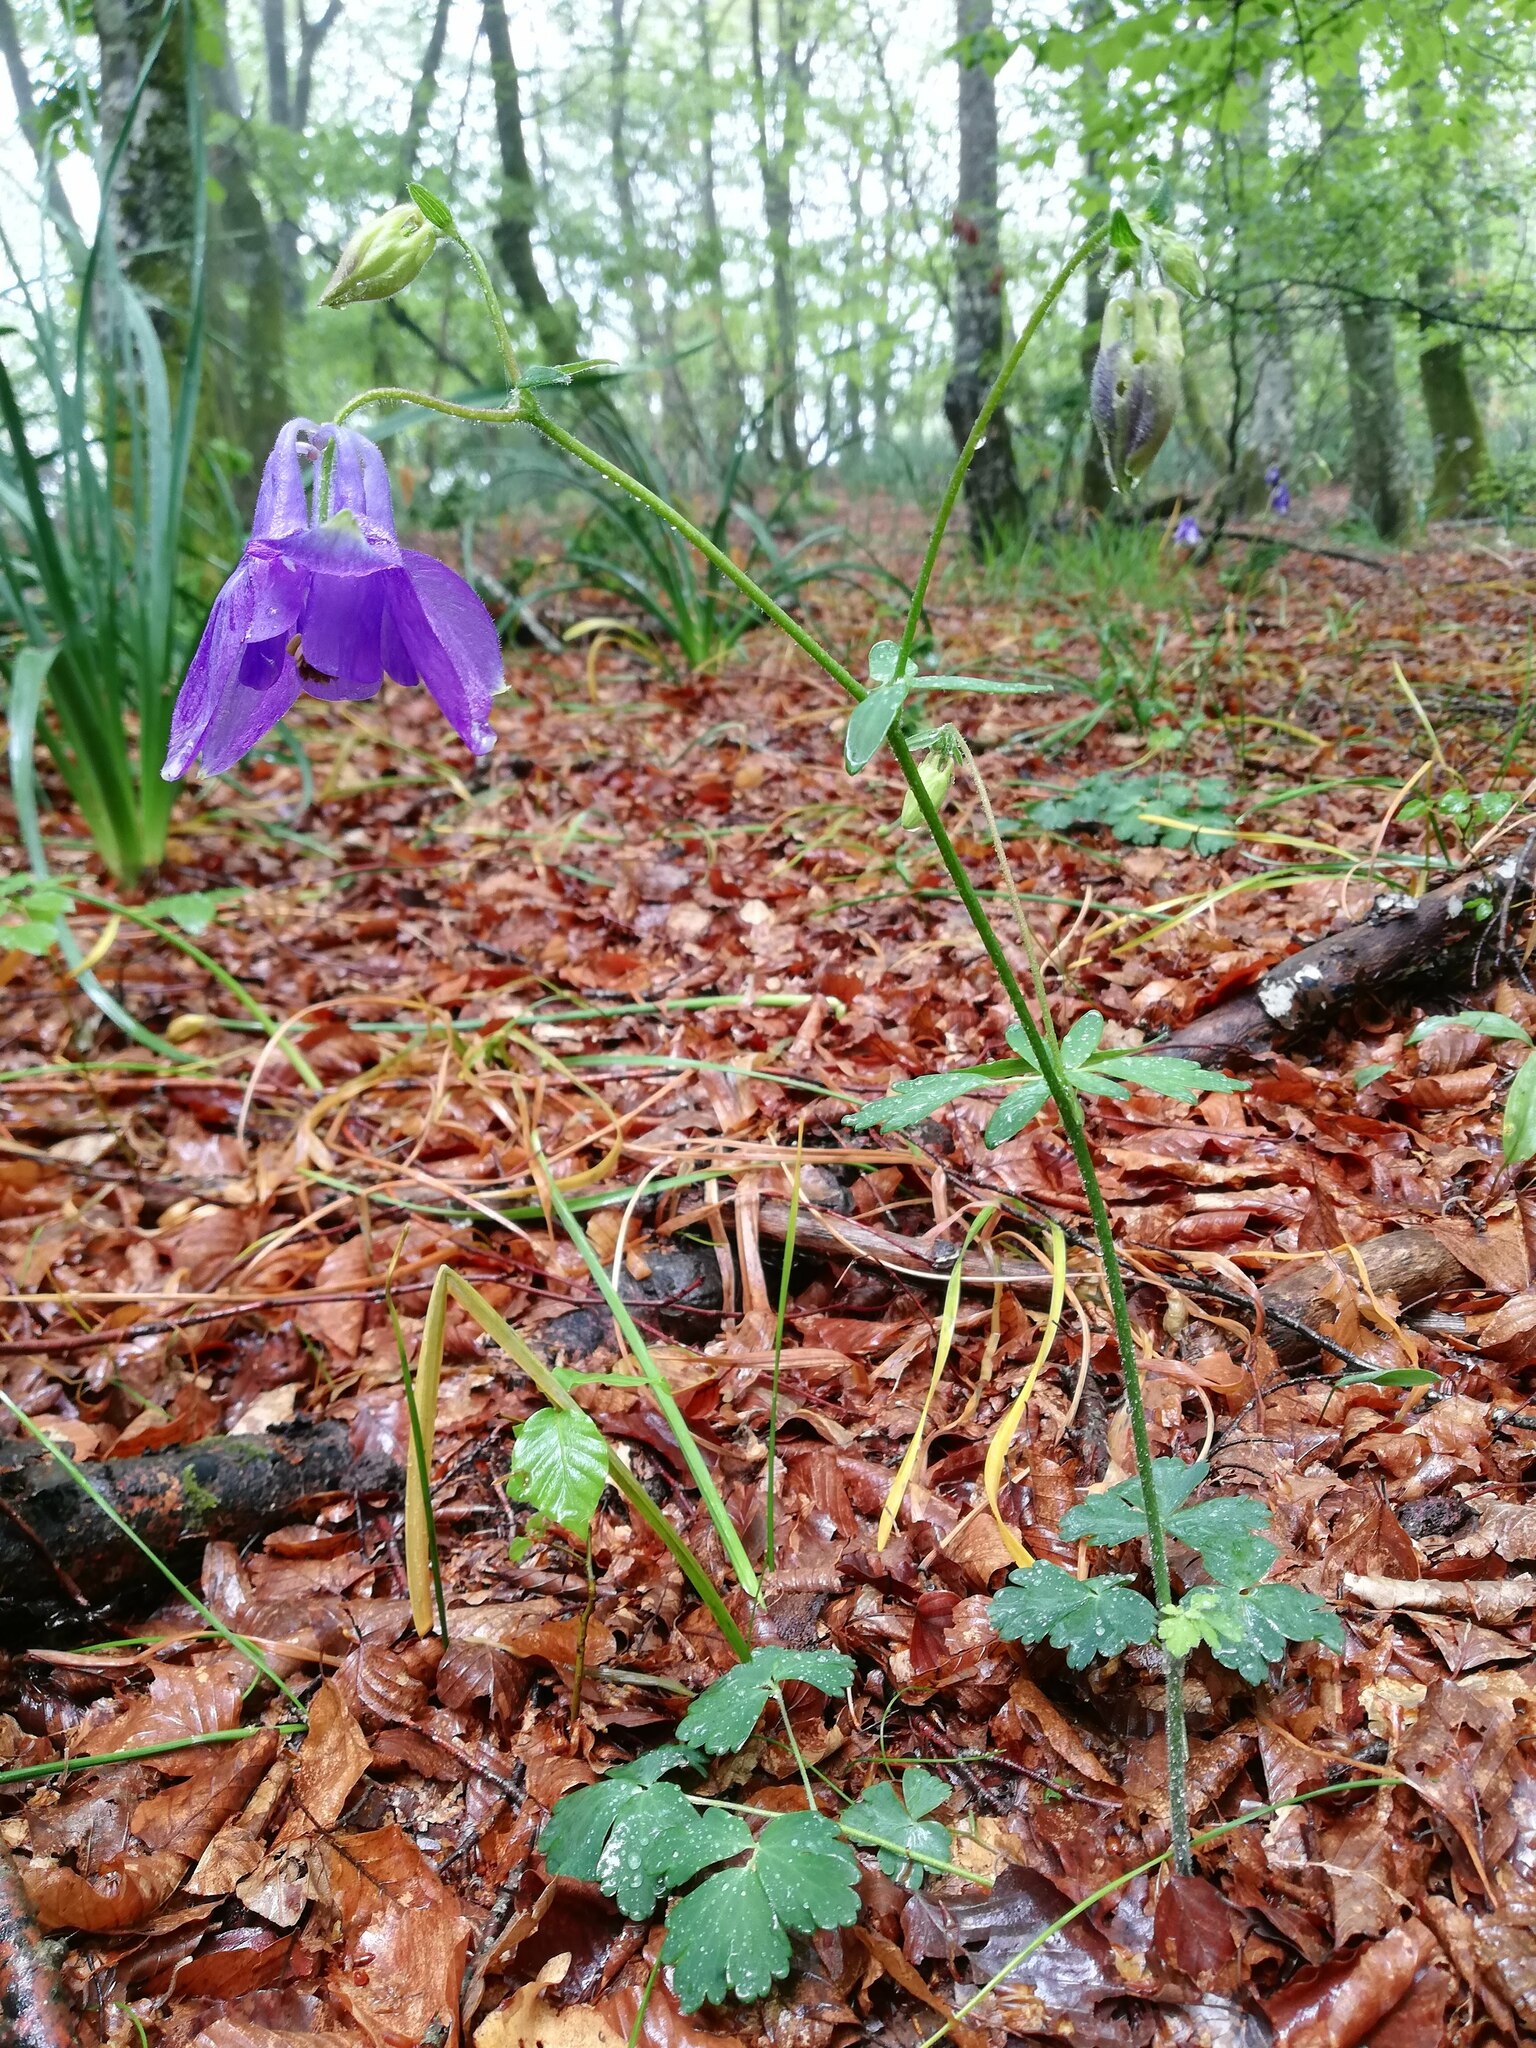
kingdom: Plantae
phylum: Tracheophyta
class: Magnoliopsida
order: Ranunculales
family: Ranunculaceae
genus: Aquilegia
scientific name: Aquilegia vulgaris
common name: Columbine
